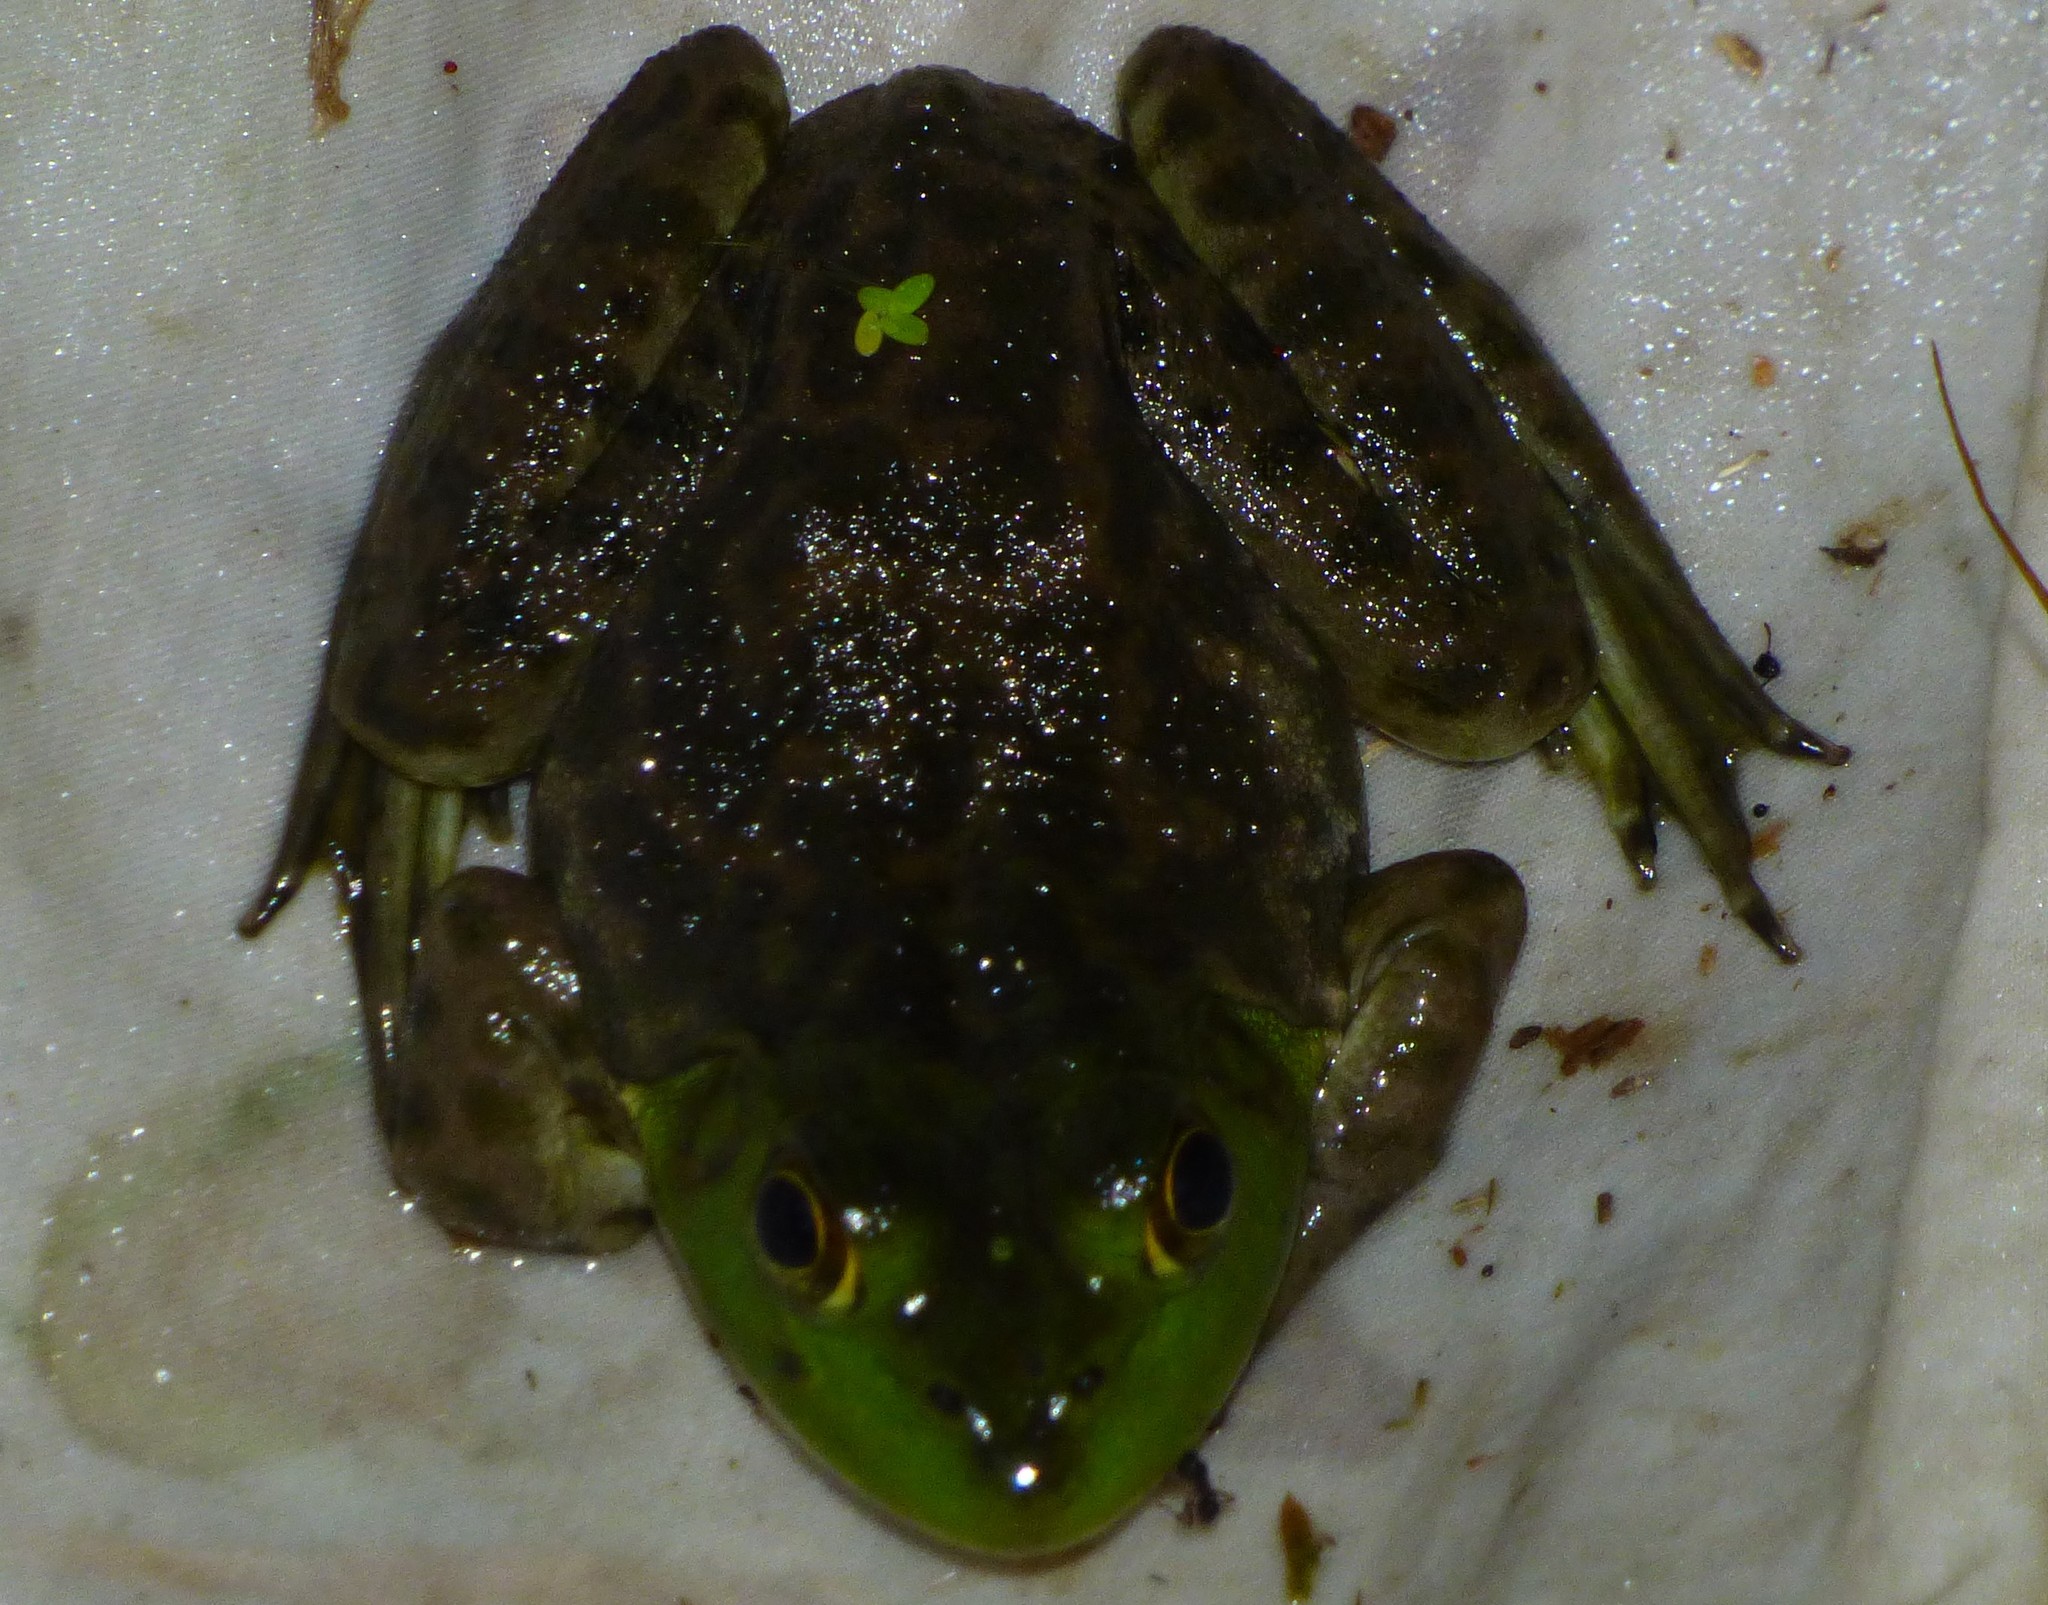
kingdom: Animalia
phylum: Chordata
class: Amphibia
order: Anura
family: Ranidae
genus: Lithobates
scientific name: Lithobates catesbeianus
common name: American bullfrog
